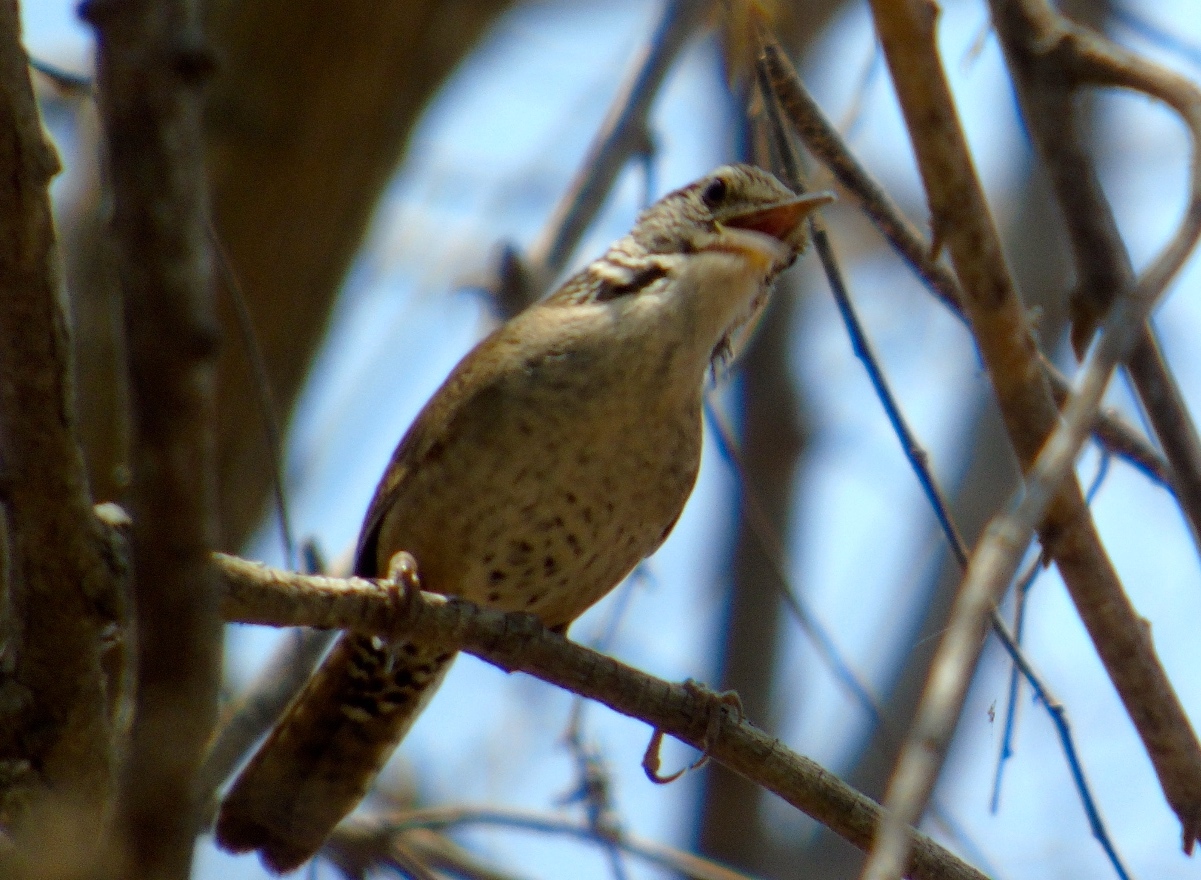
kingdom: Animalia
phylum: Chordata
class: Aves
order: Passeriformes
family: Troglodytidae
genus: Thryophilus
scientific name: Thryophilus sinaloa
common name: Sinaloa wren
